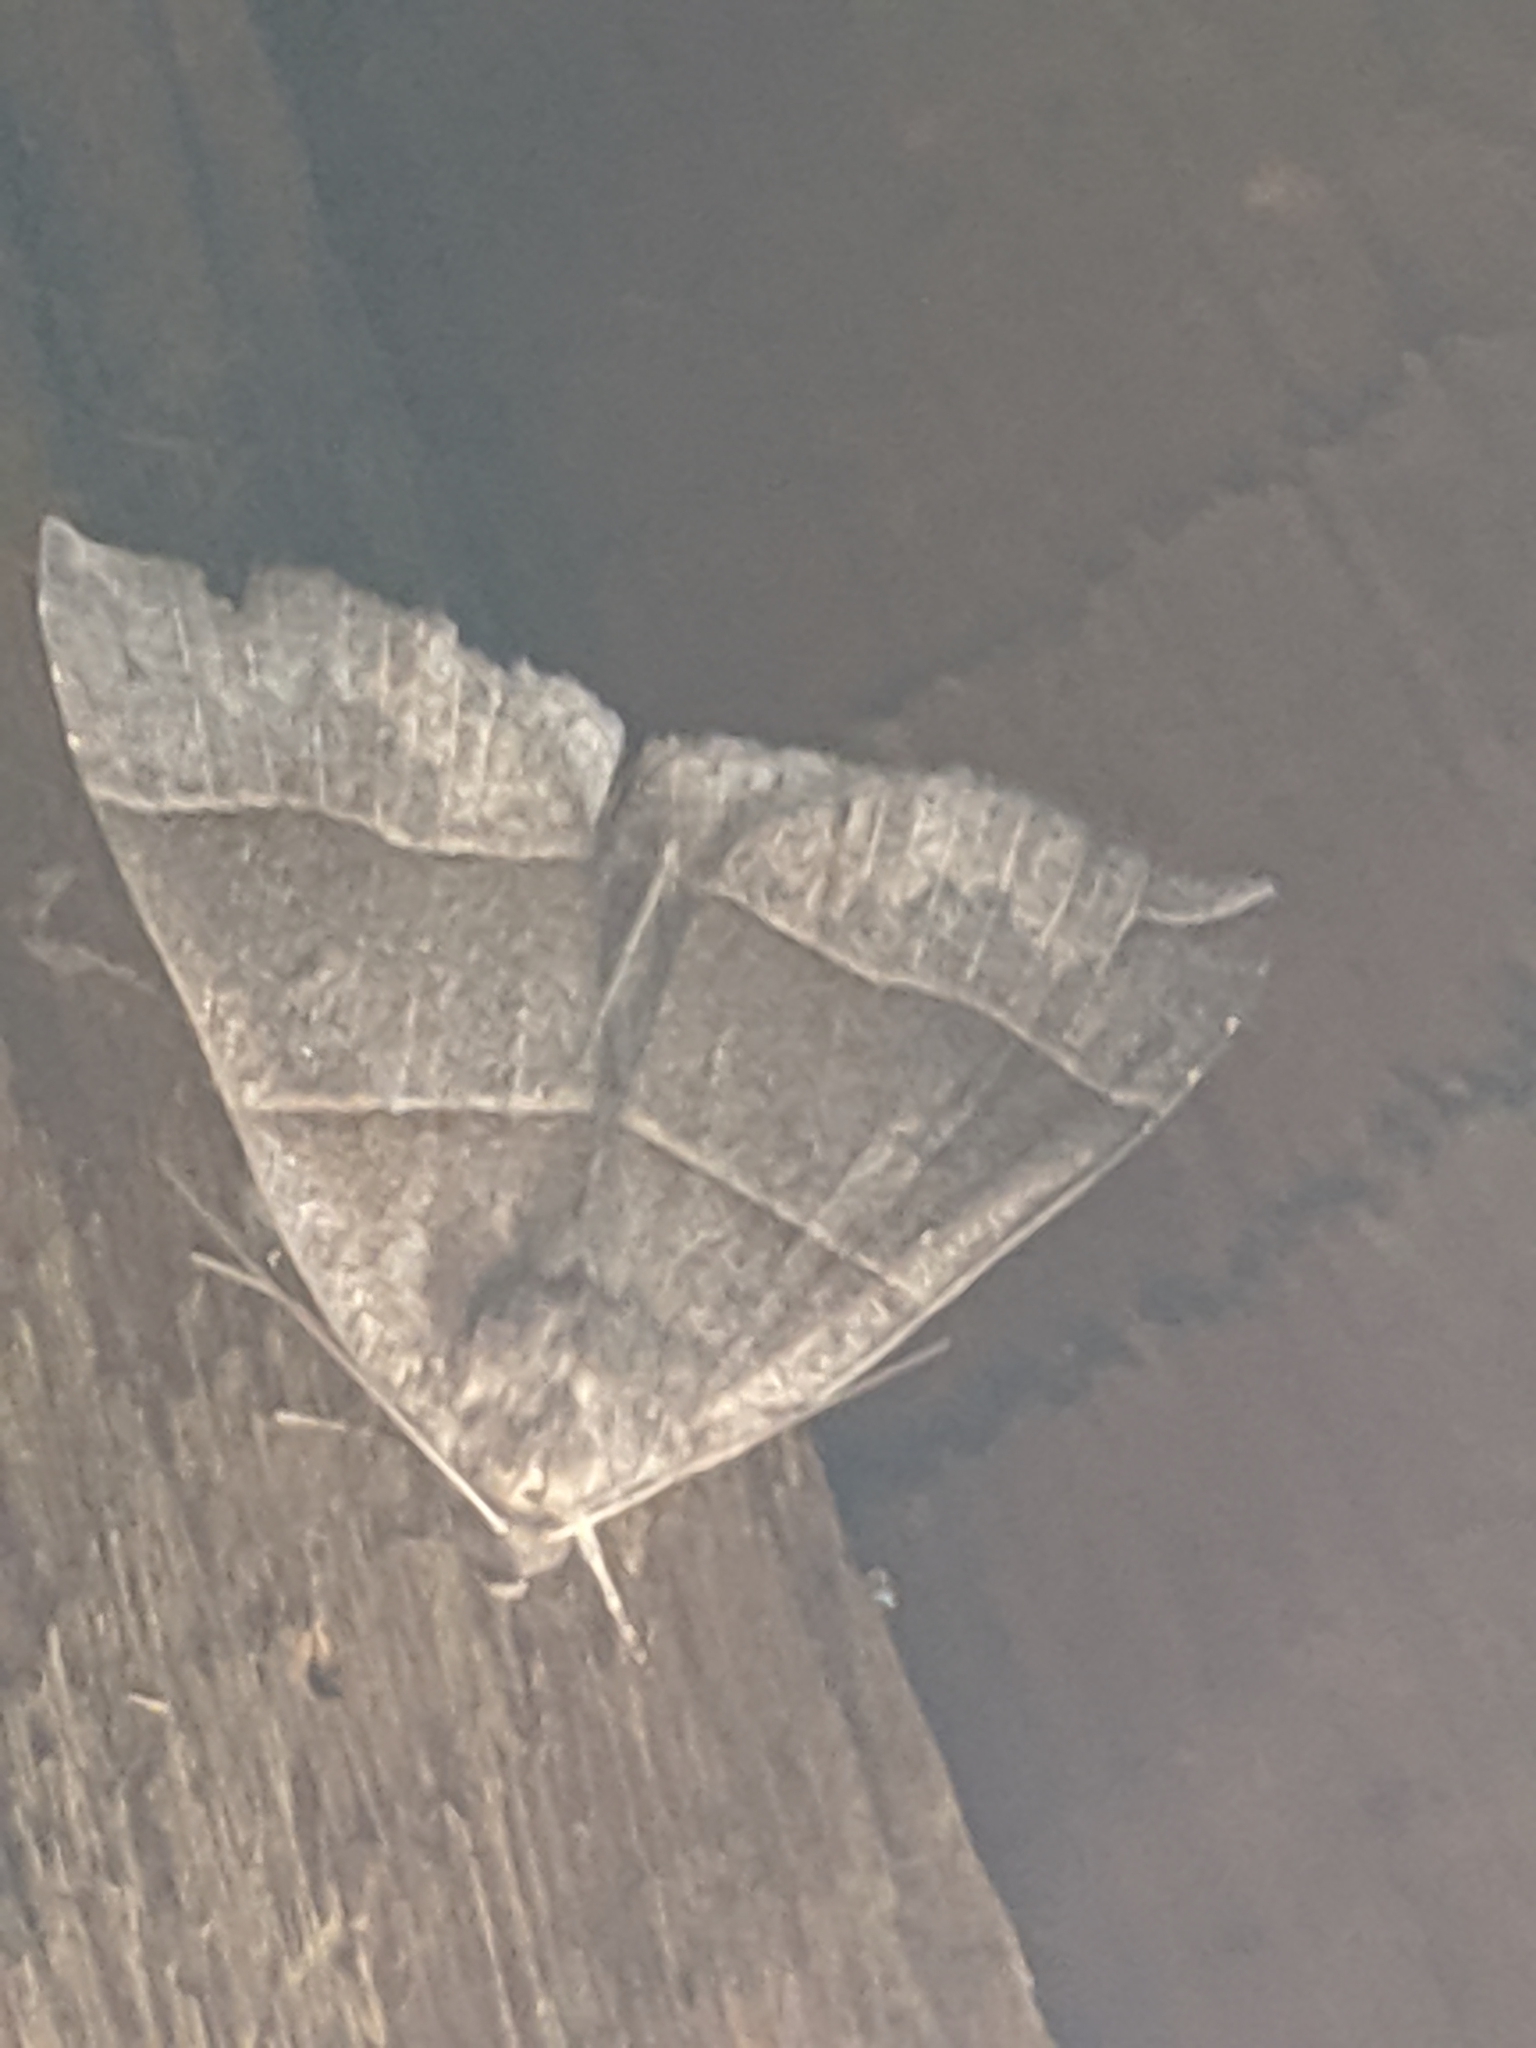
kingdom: Animalia
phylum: Arthropoda
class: Insecta
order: Lepidoptera
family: Erebidae
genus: Parallelia
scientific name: Parallelia bistriaris
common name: Maple looper moth
